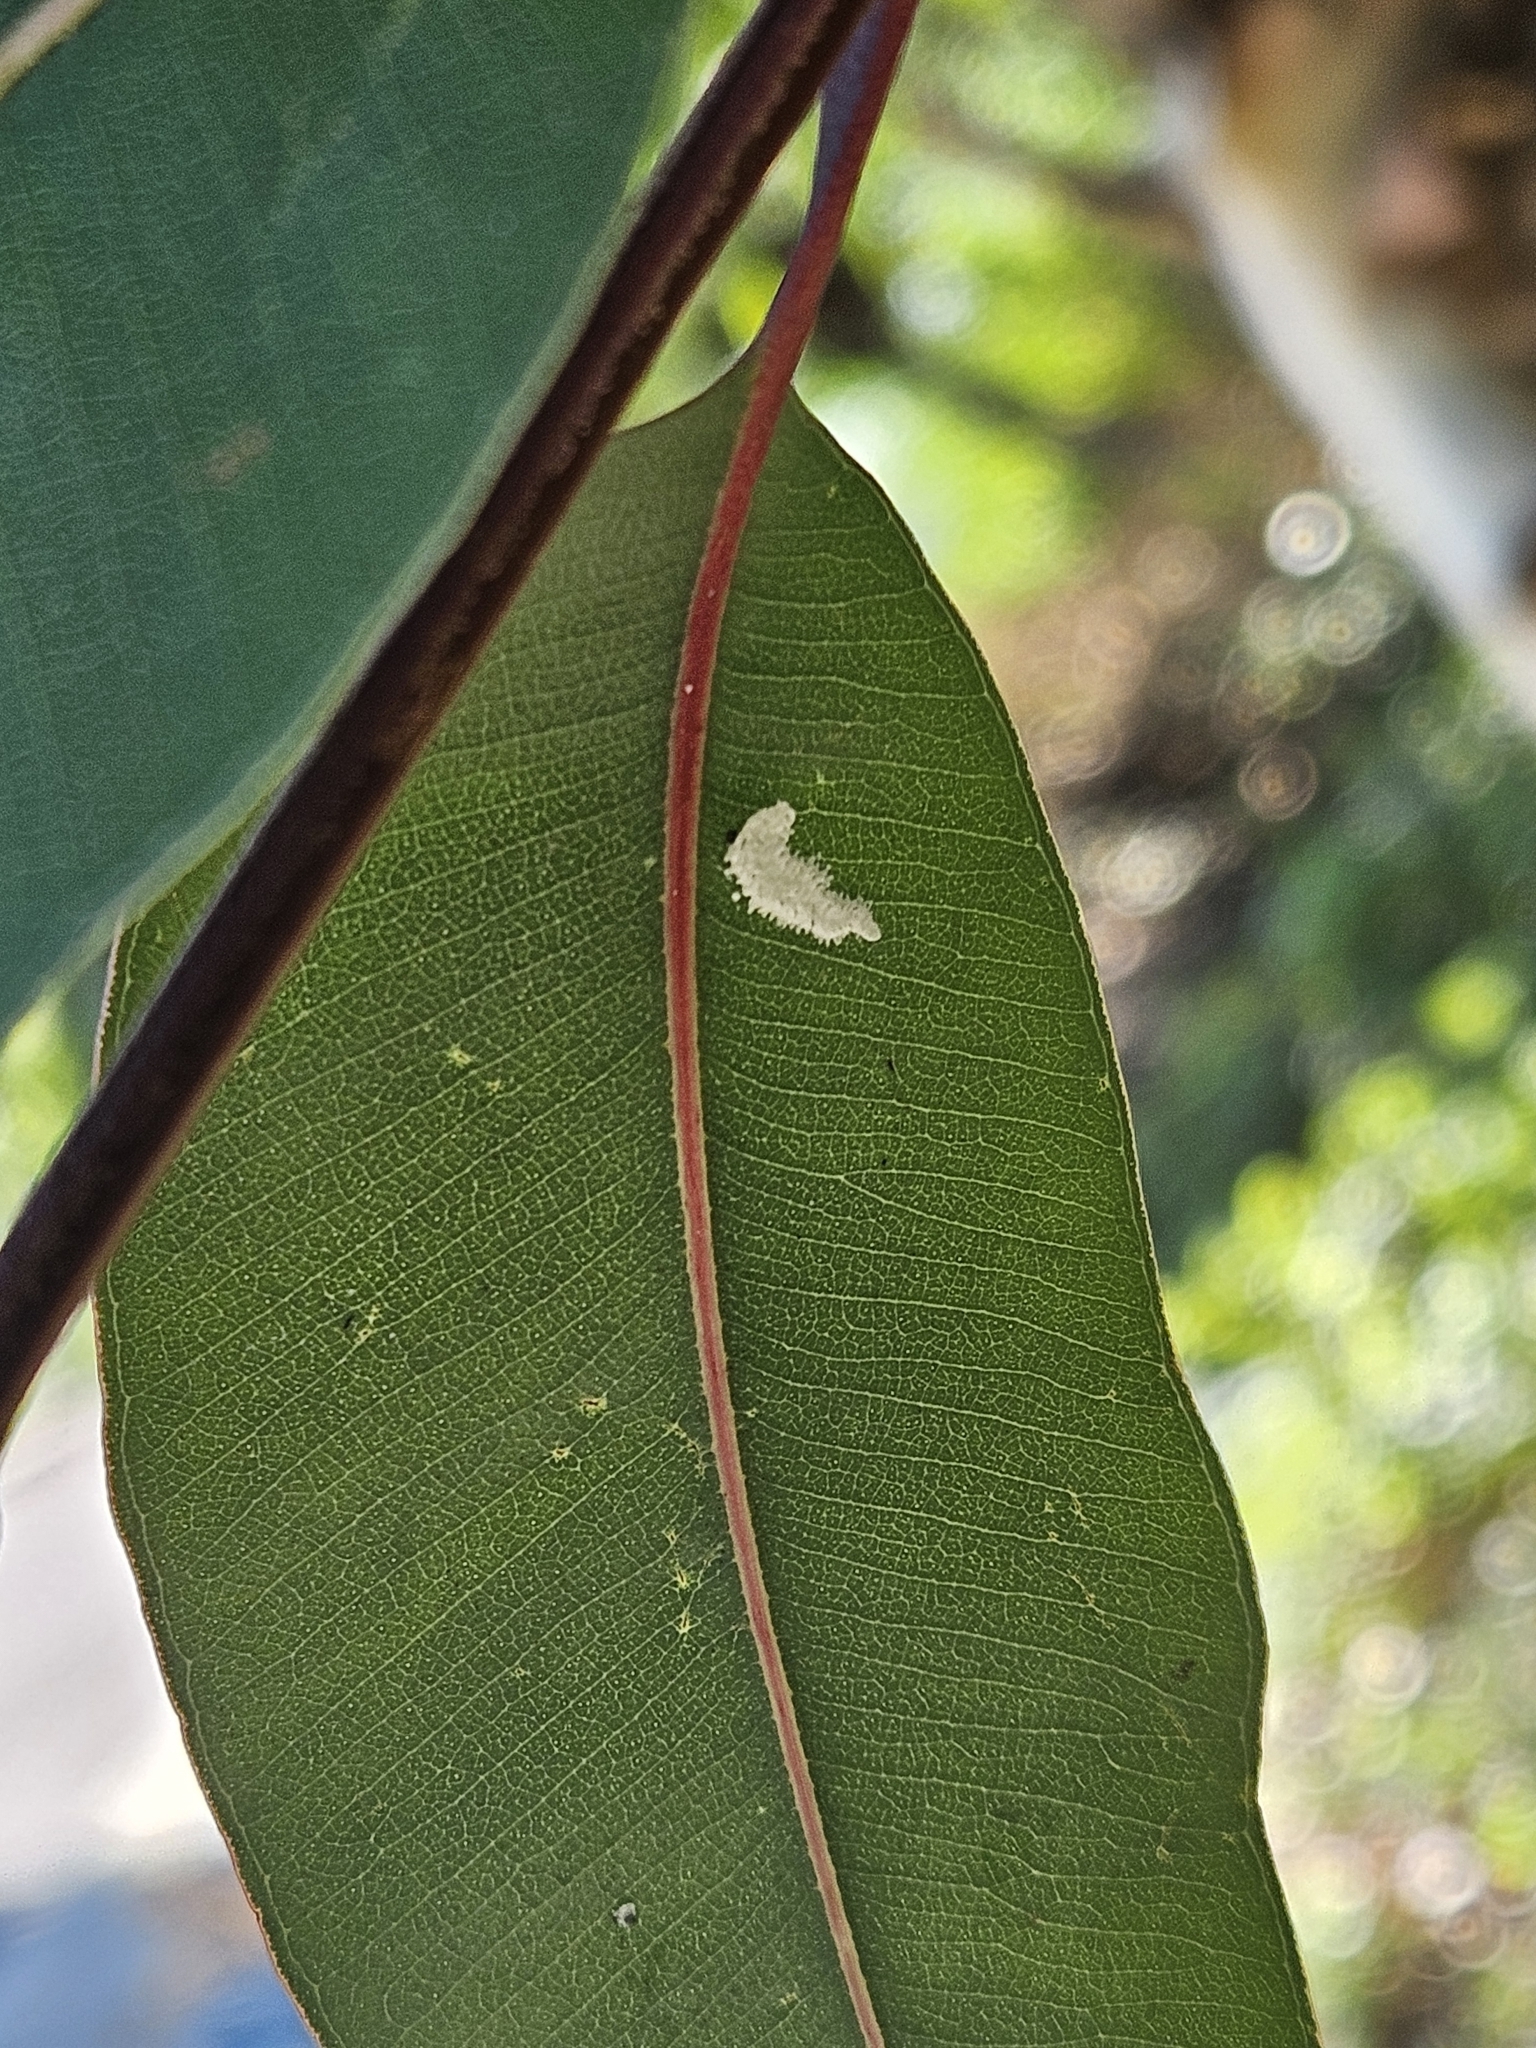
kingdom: Animalia
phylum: Arthropoda
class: Insecta
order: Hemiptera
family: Aphalaridae
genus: Eucalyptolyma
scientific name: Eucalyptolyma maideni
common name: Spotted gum lerp psyllid
